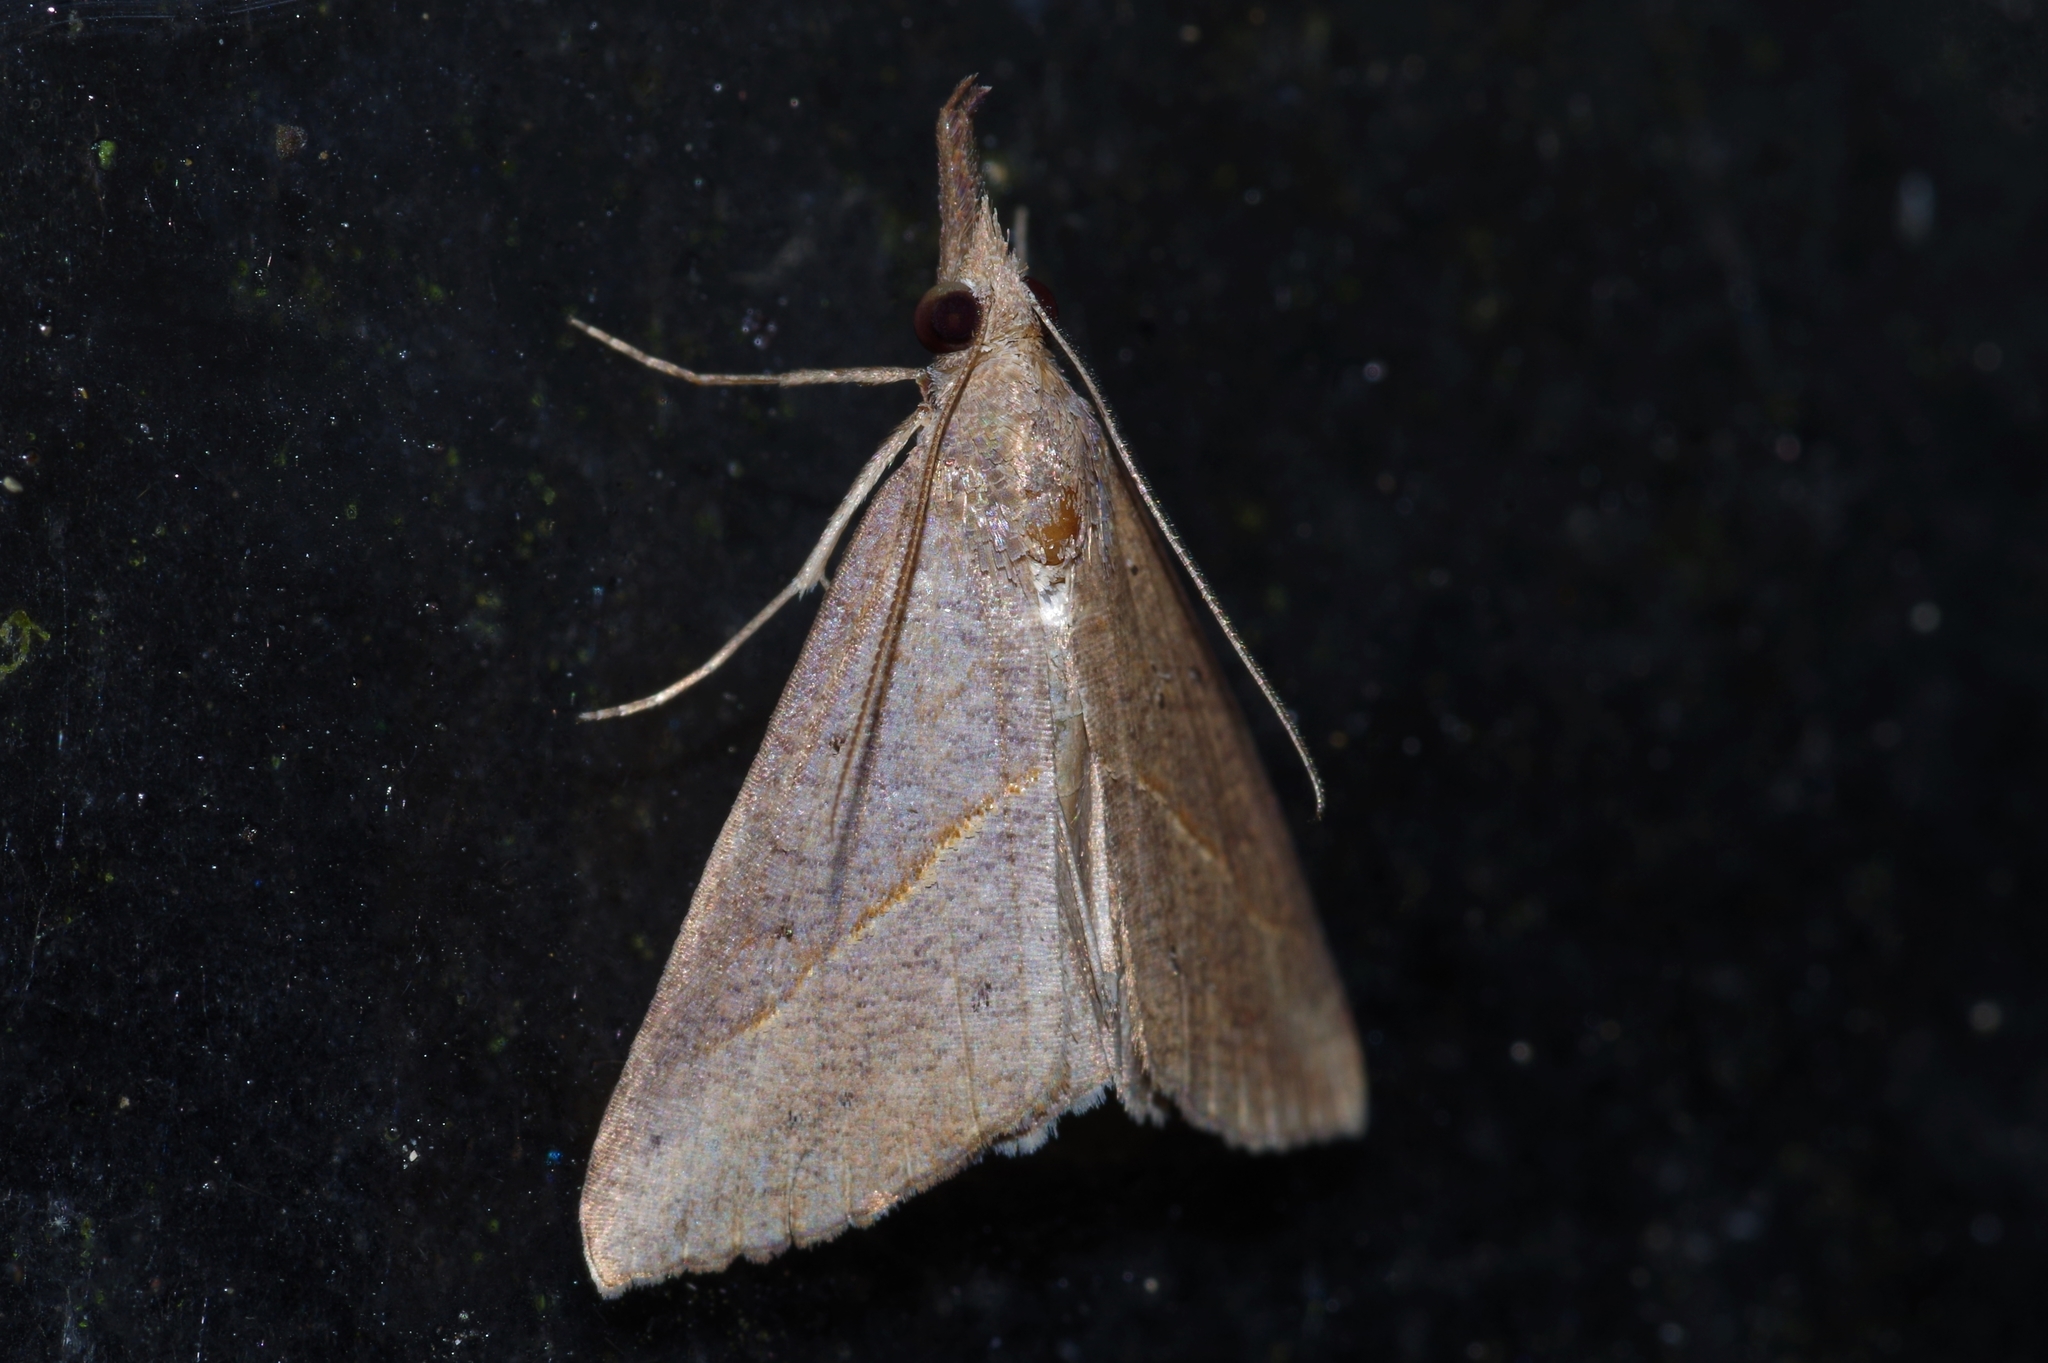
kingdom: Animalia
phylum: Arthropoda
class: Insecta
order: Lepidoptera
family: Erebidae
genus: Hypena
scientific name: Hypena lividalis
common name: Chevron snout
